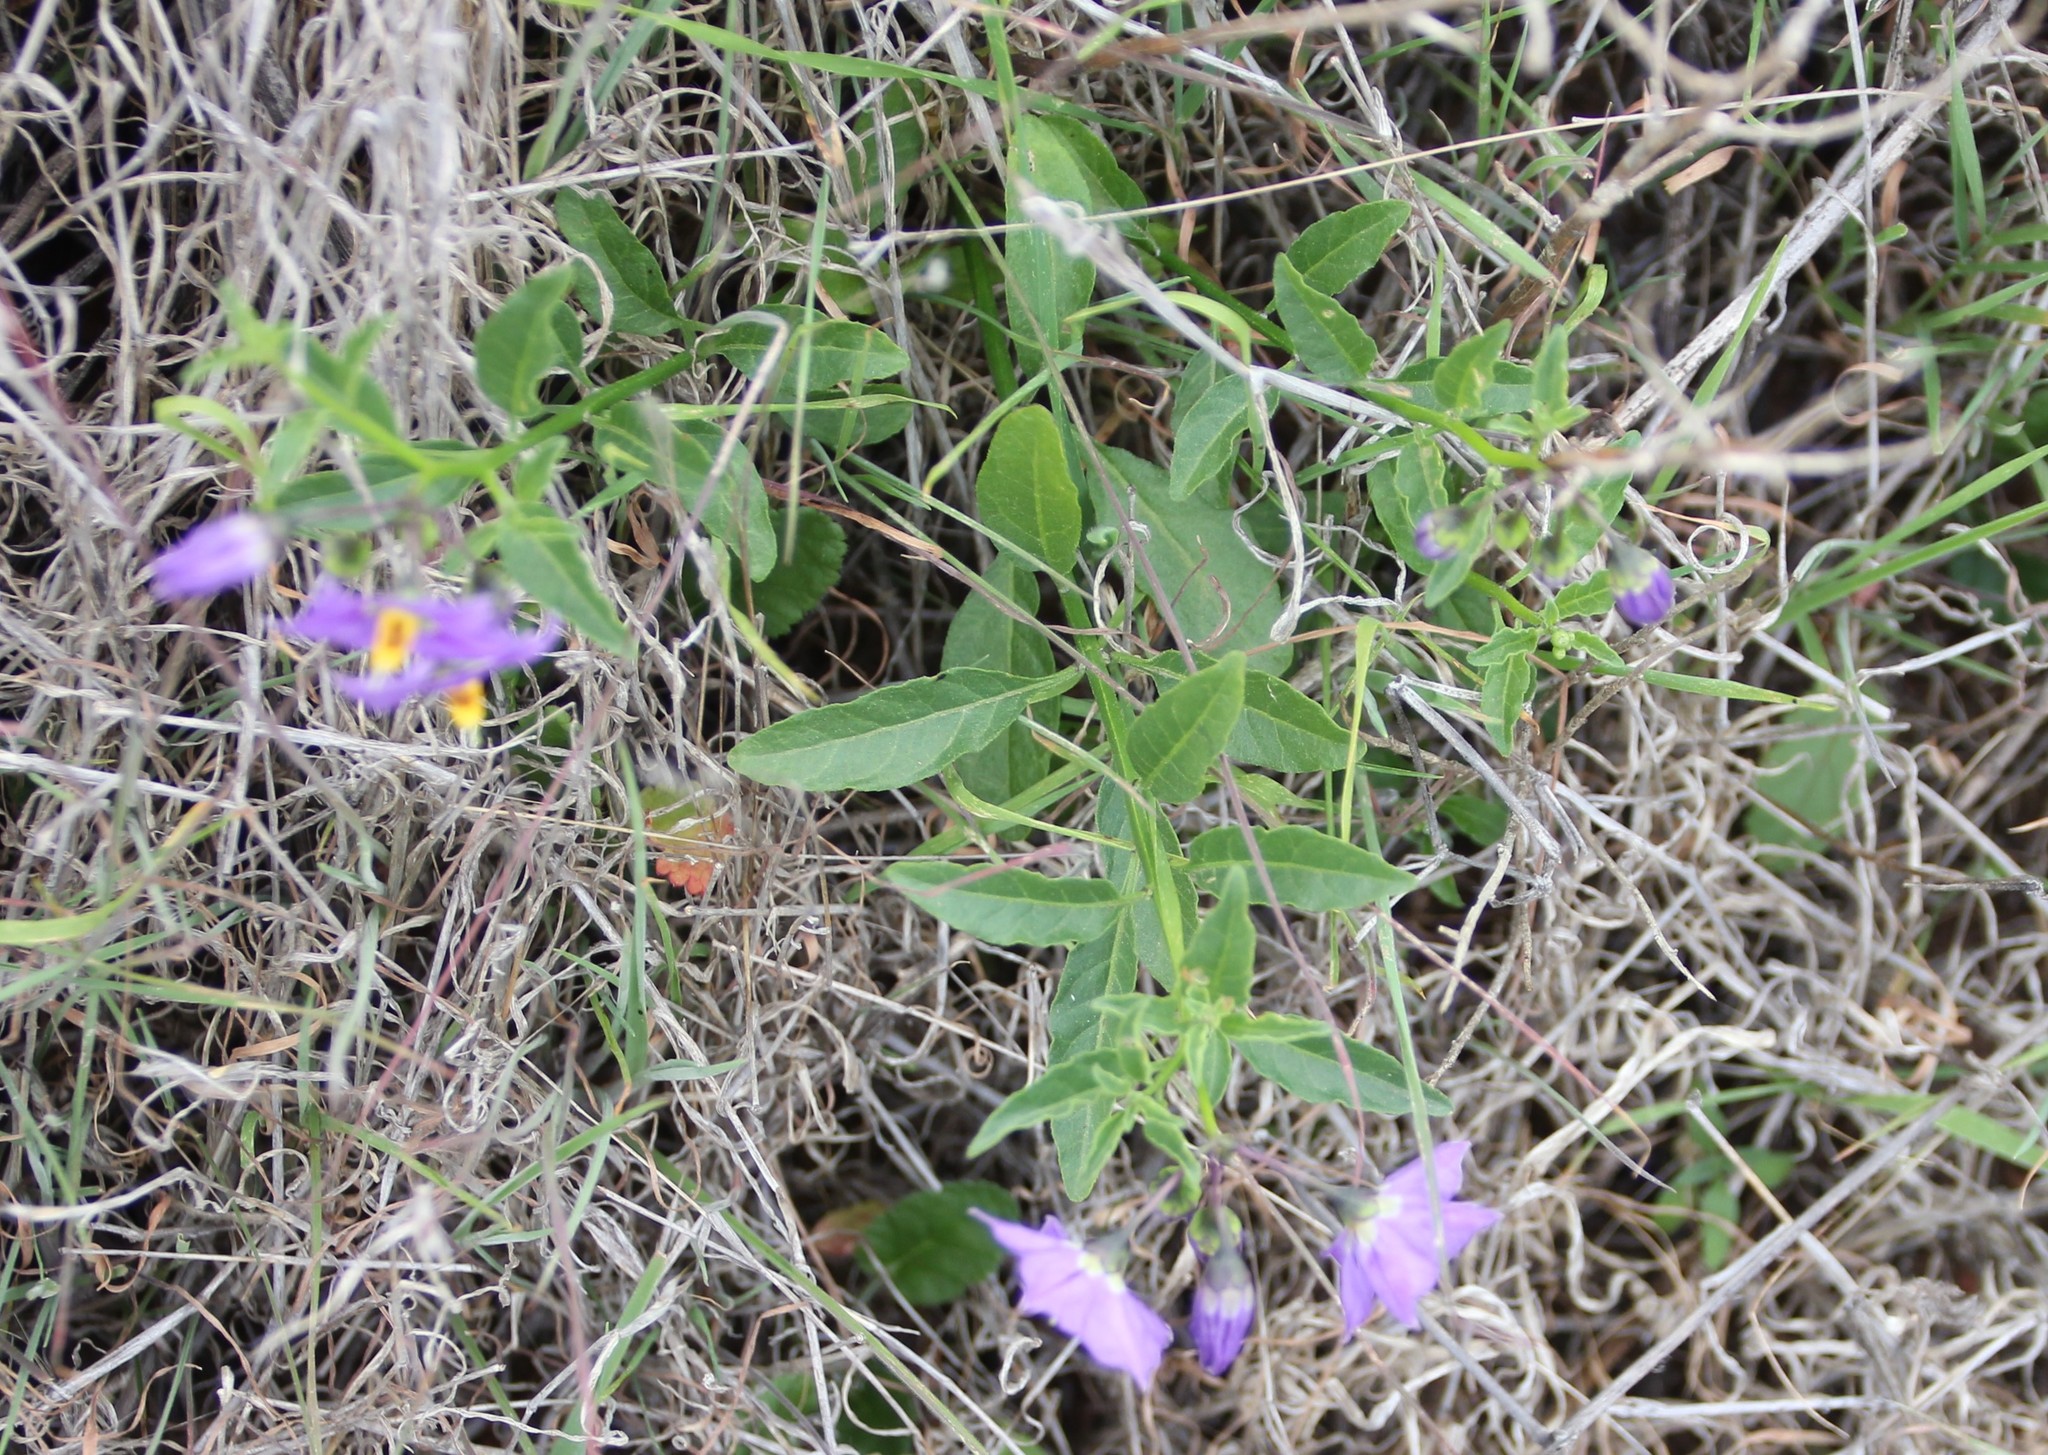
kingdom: Plantae
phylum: Tracheophyta
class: Magnoliopsida
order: Solanales
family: Solanaceae
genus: Solanum
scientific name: Solanum umbelliferum
